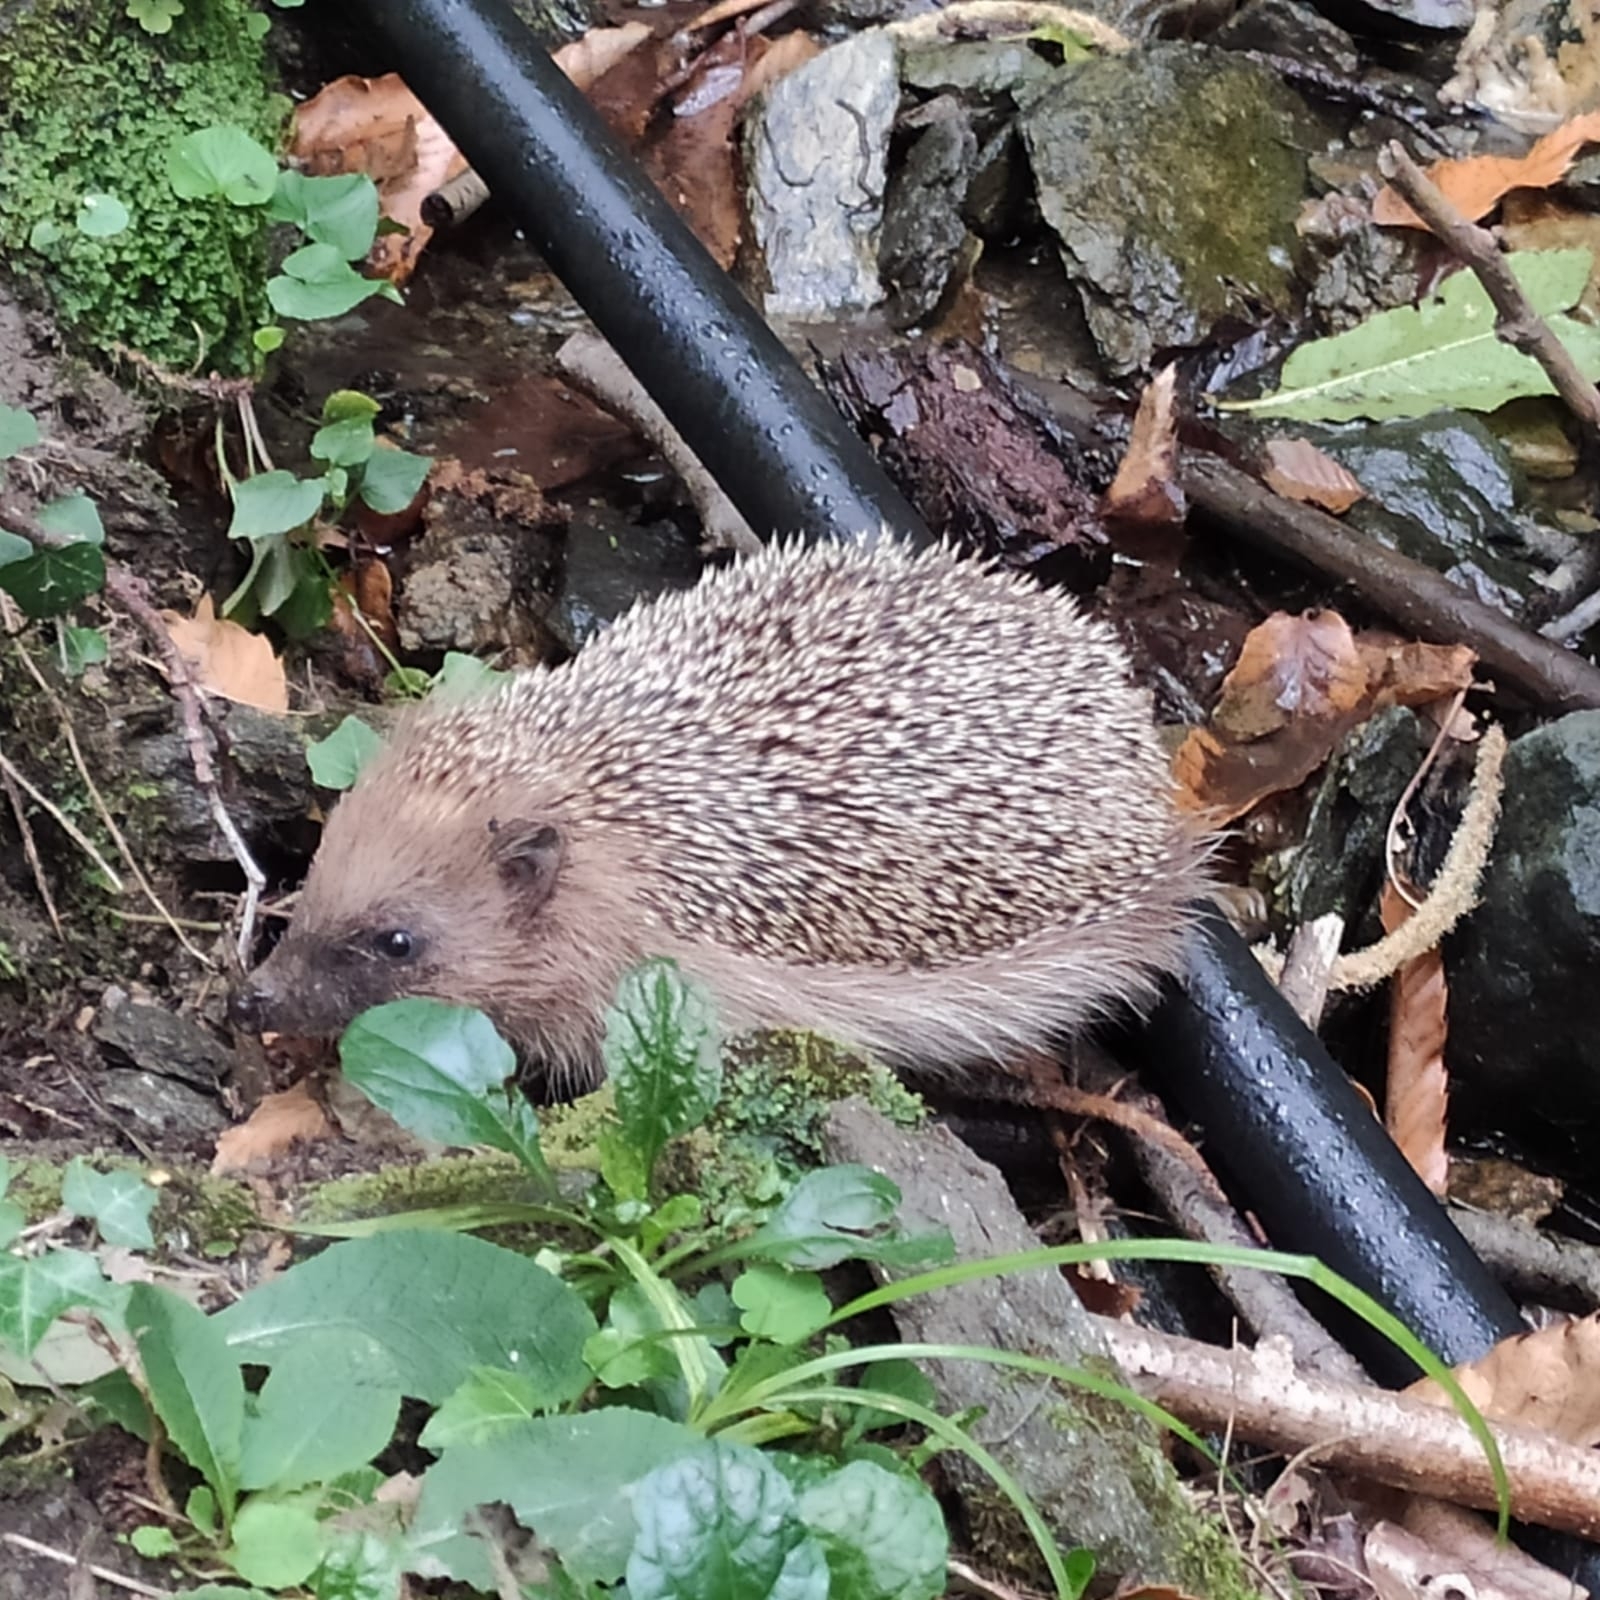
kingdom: Animalia
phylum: Chordata
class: Mammalia
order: Erinaceomorpha
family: Erinaceidae
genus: Erinaceus
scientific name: Erinaceus europaeus
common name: West european hedgehog
